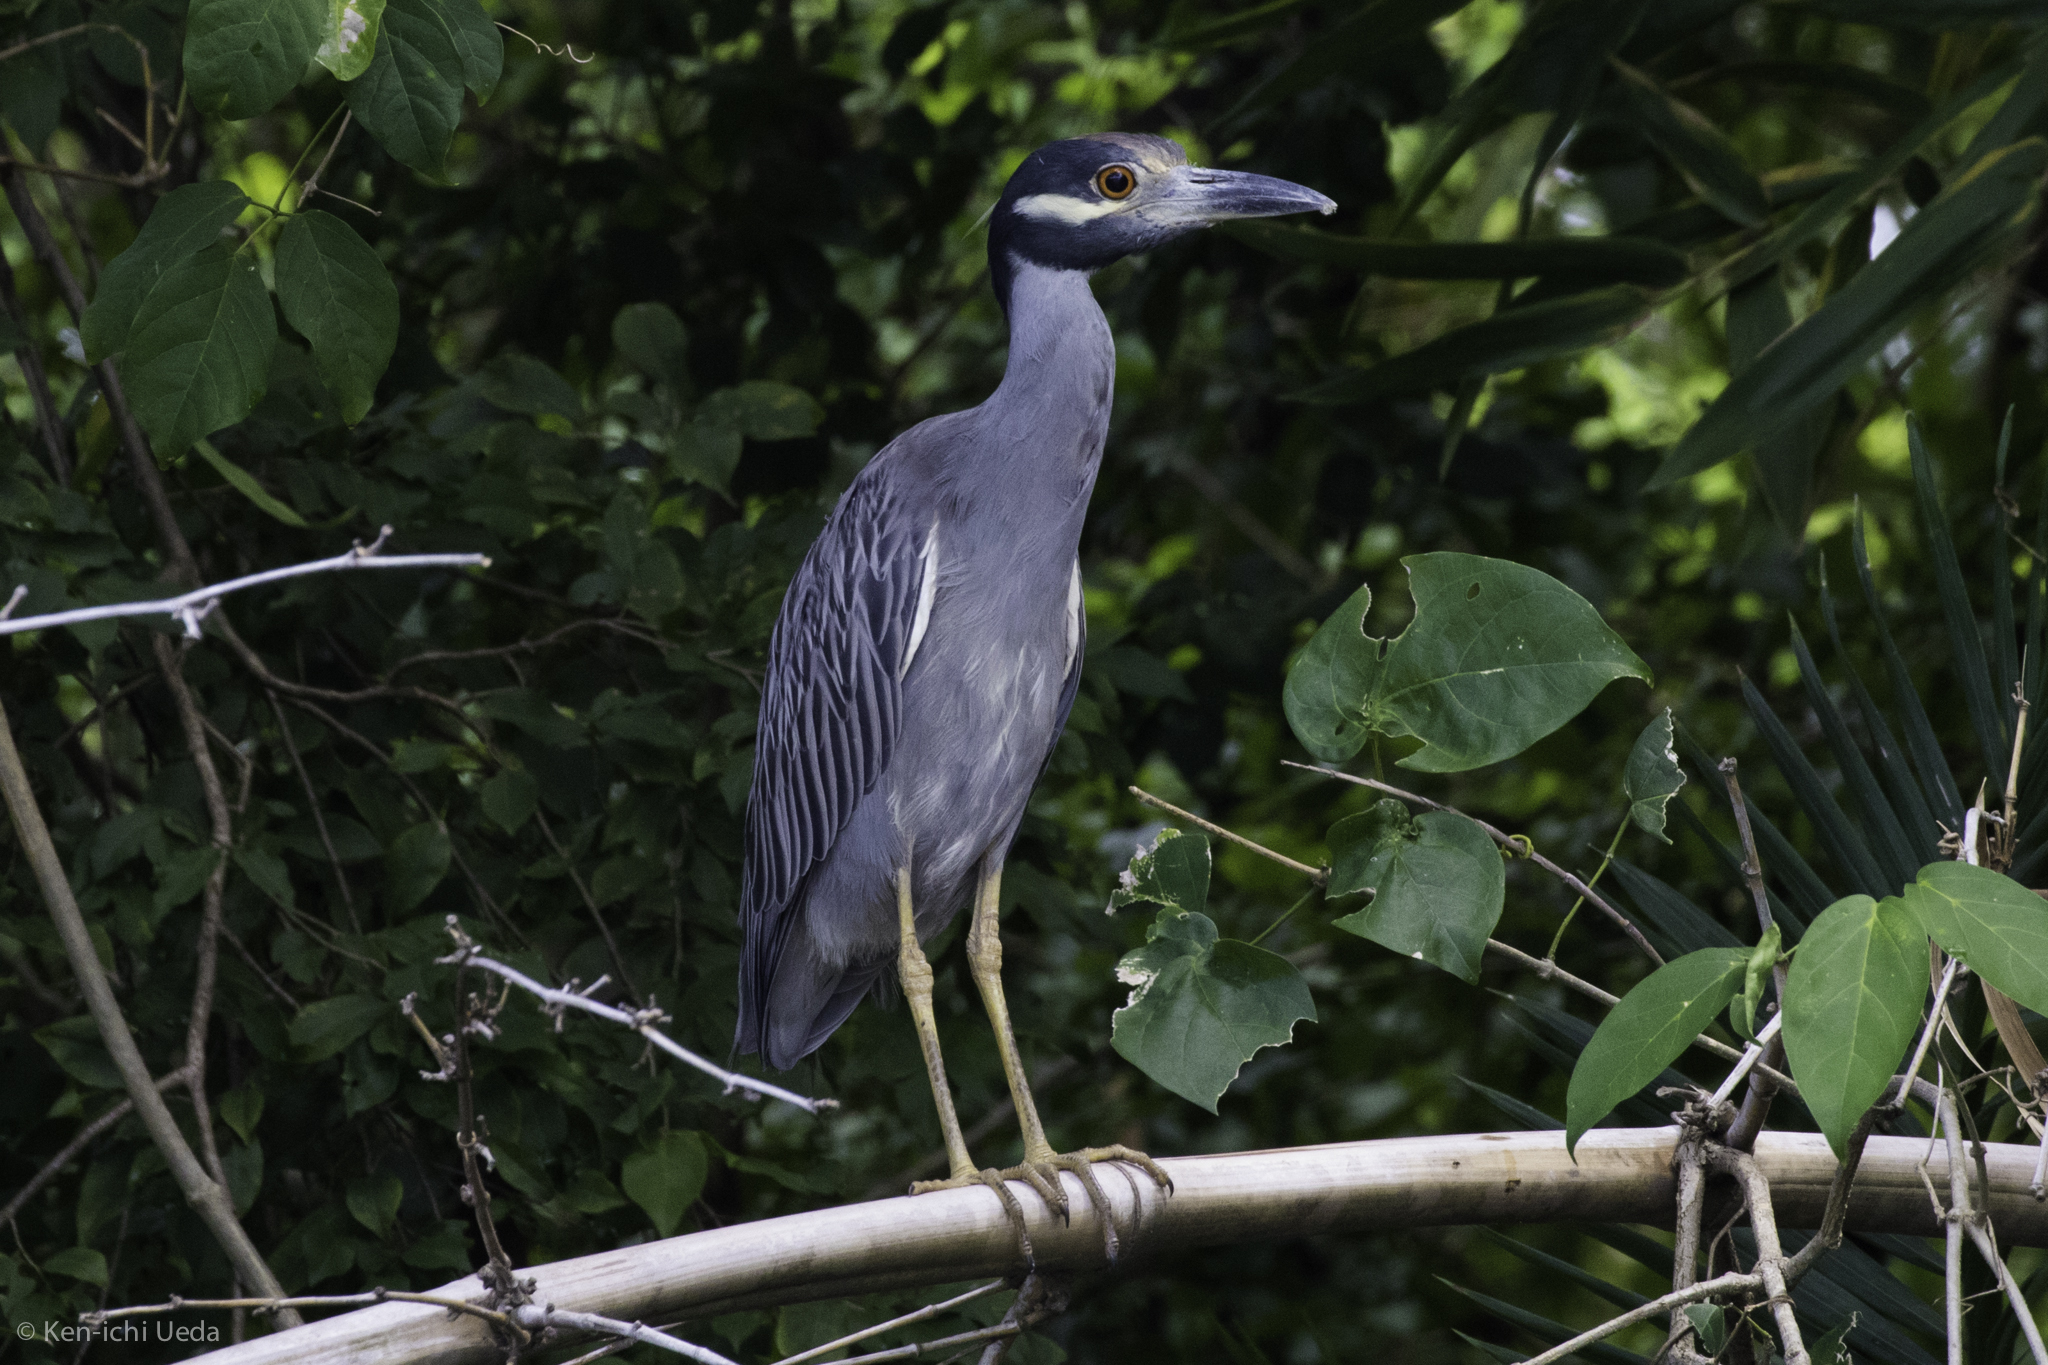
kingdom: Animalia
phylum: Chordata
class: Aves
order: Pelecaniformes
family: Ardeidae
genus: Nyctanassa
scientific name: Nyctanassa violacea
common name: Yellow-crowned night heron
